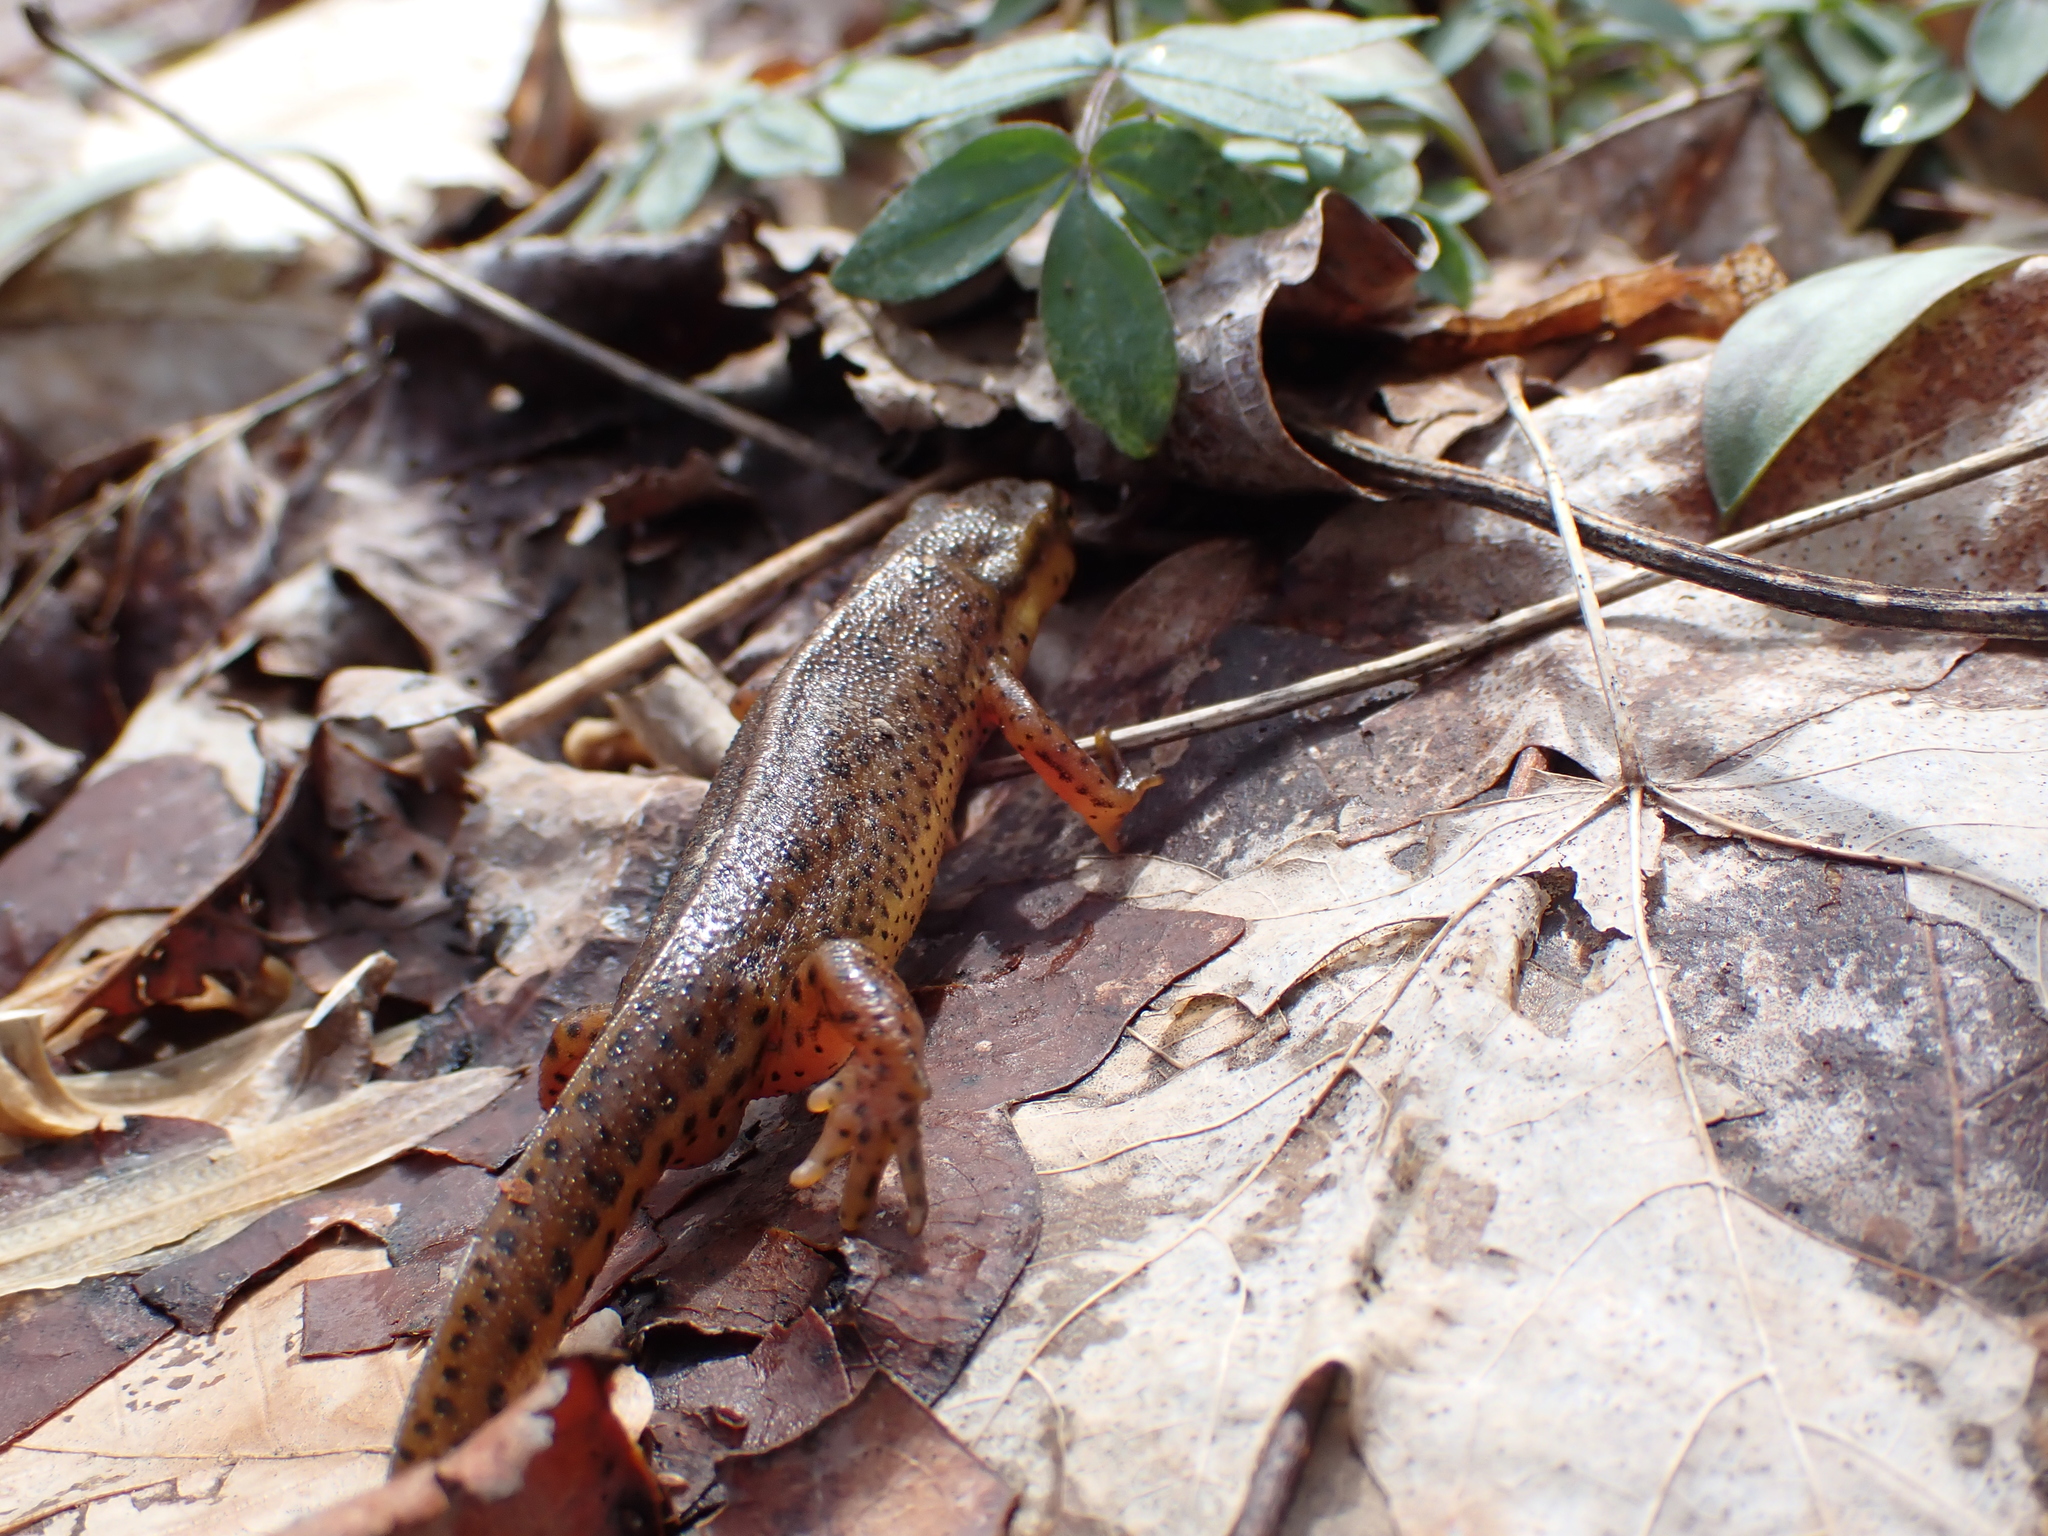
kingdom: Animalia
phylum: Chordata
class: Amphibia
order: Caudata
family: Salamandridae
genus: Notophthalmus
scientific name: Notophthalmus viridescens
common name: Eastern newt
